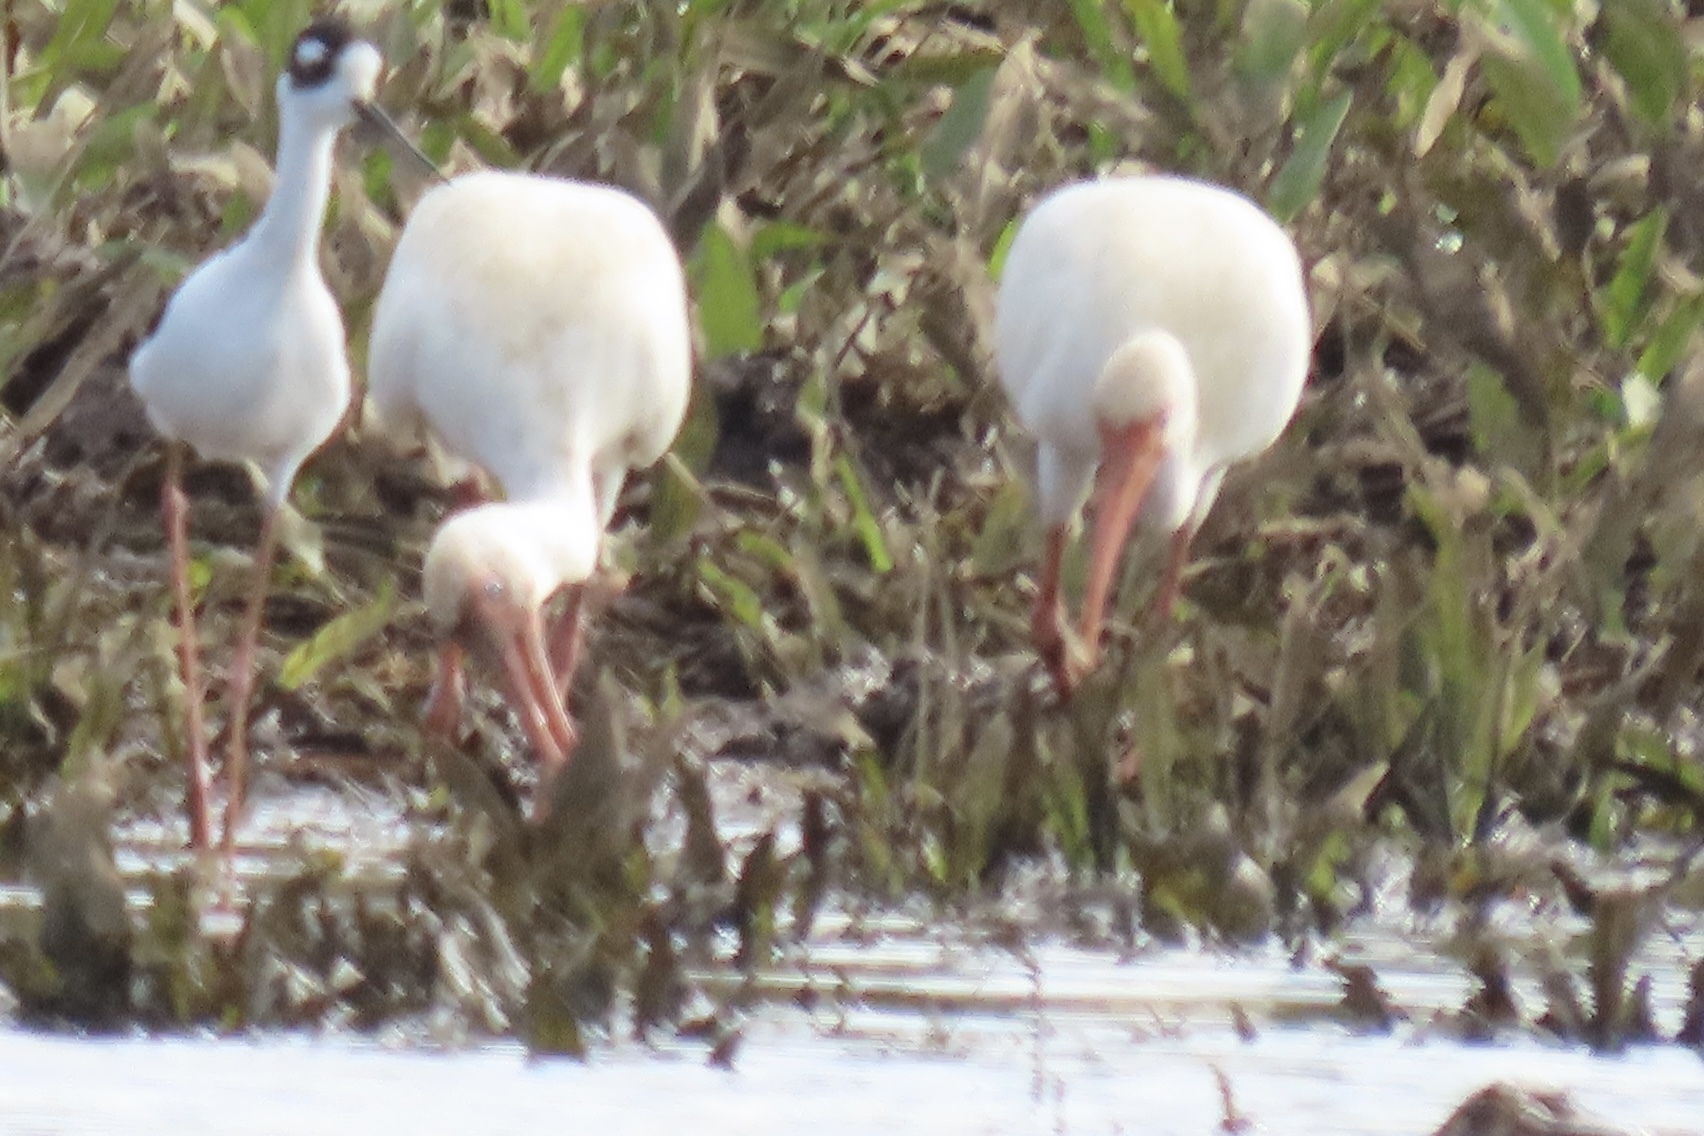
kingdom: Animalia
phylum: Chordata
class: Aves
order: Pelecaniformes
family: Threskiornithidae
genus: Eudocimus
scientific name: Eudocimus albus
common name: White ibis
